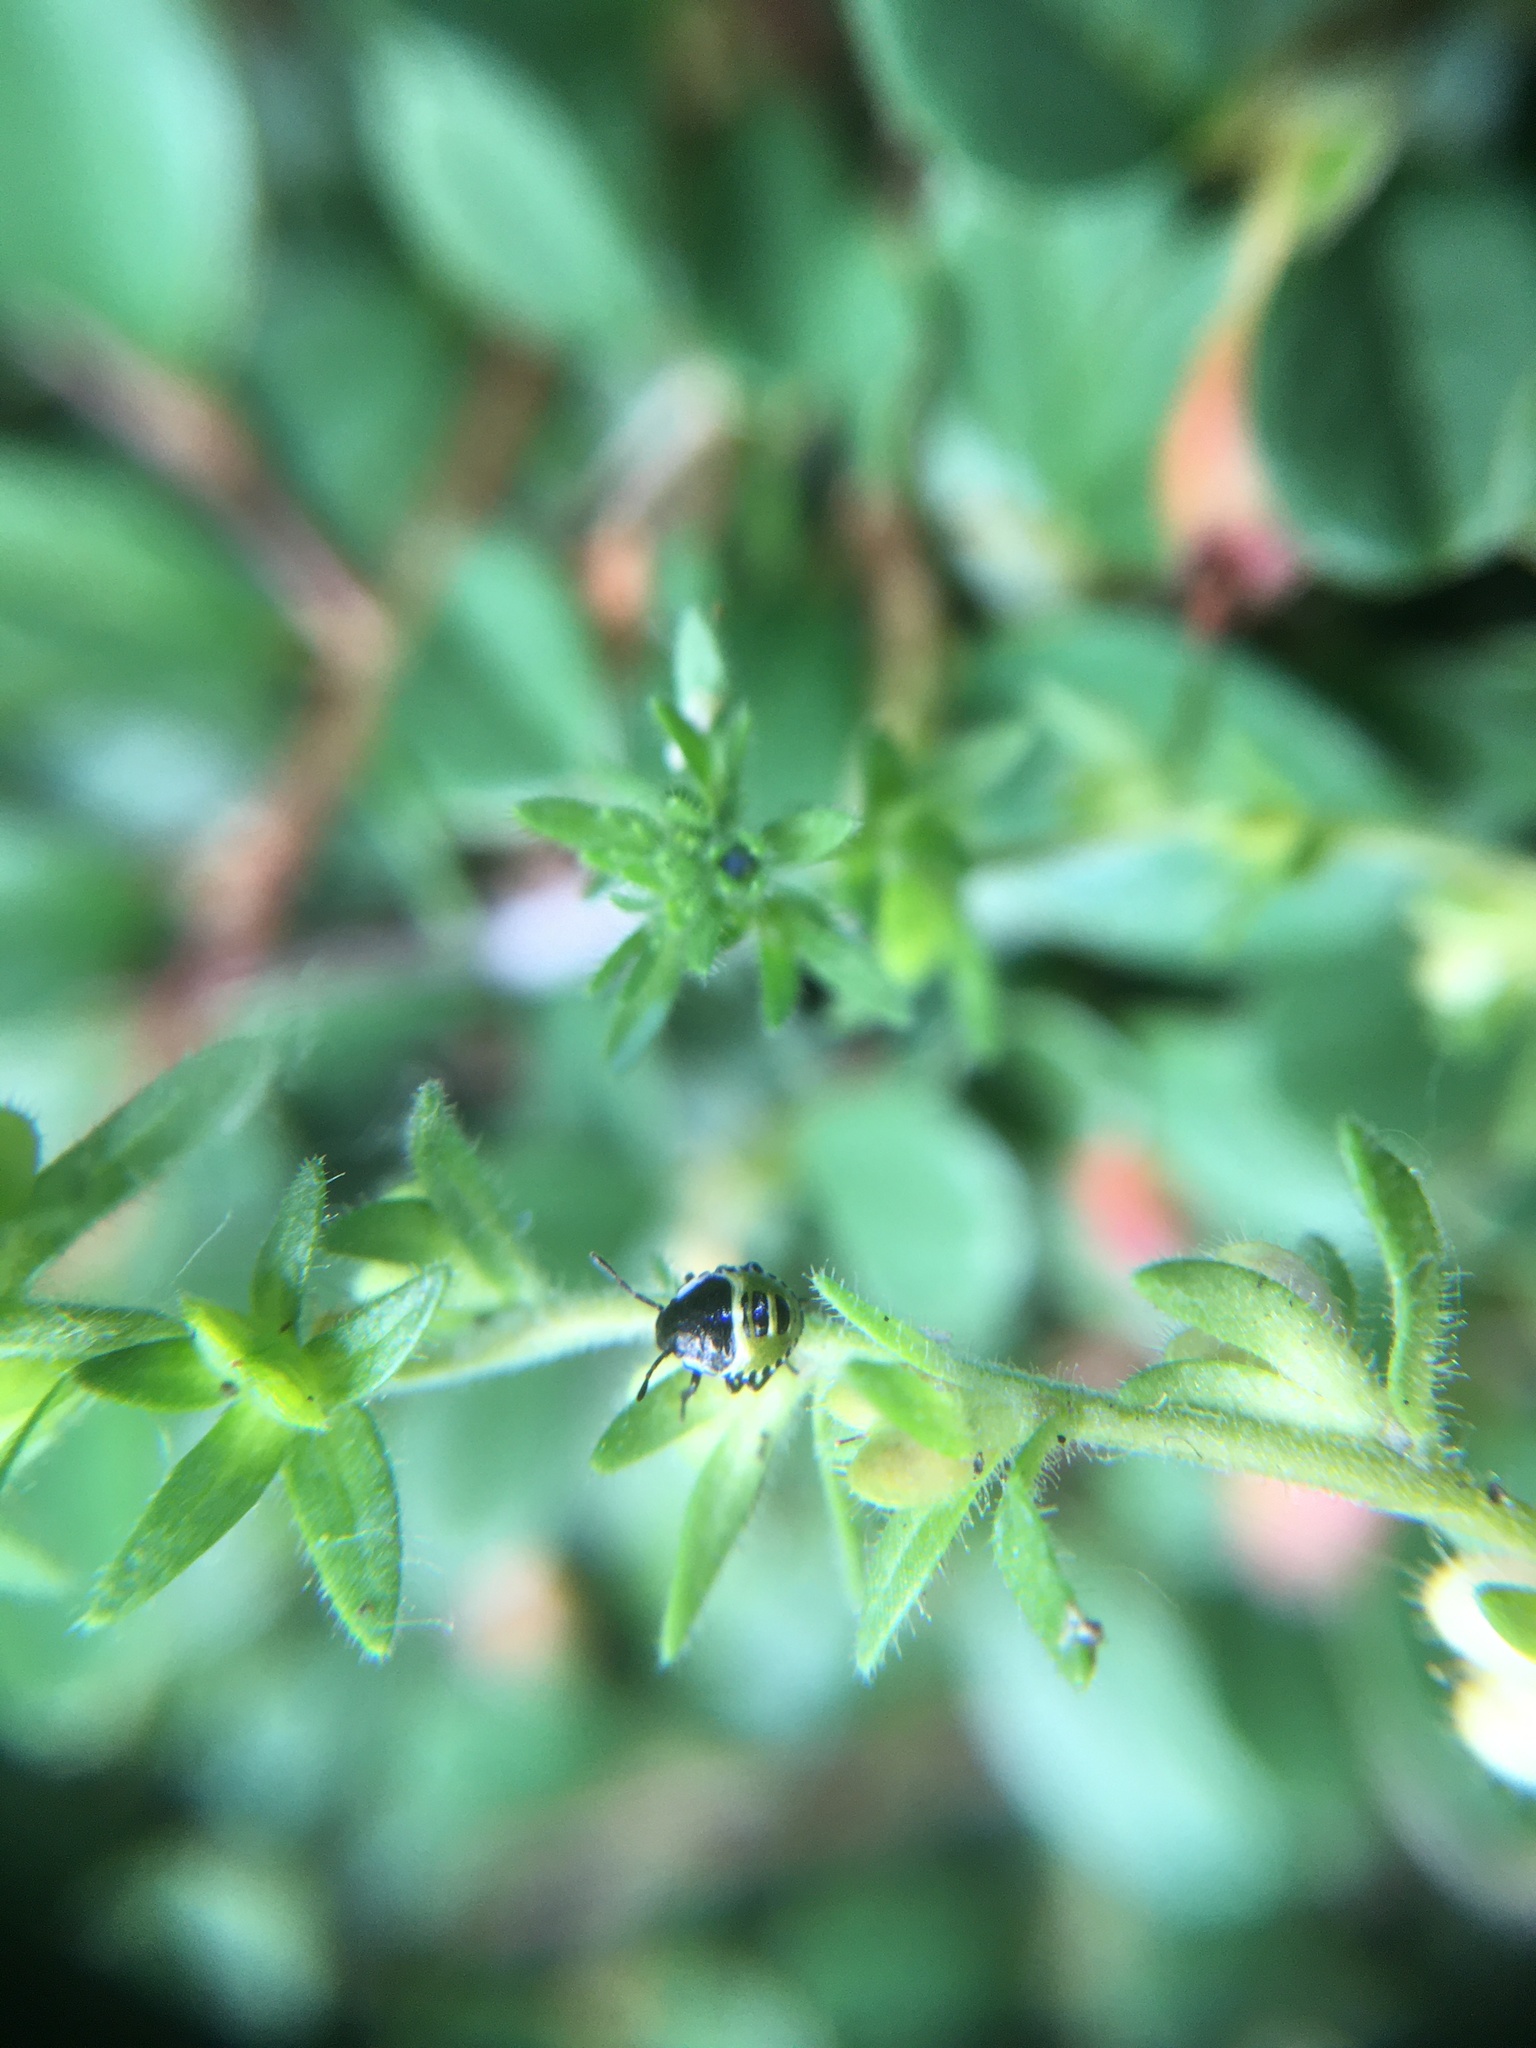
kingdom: Animalia
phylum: Arthropoda
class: Insecta
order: Hemiptera
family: Pentatomidae
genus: Palomena
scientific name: Palomena prasina
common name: Green shieldbug
